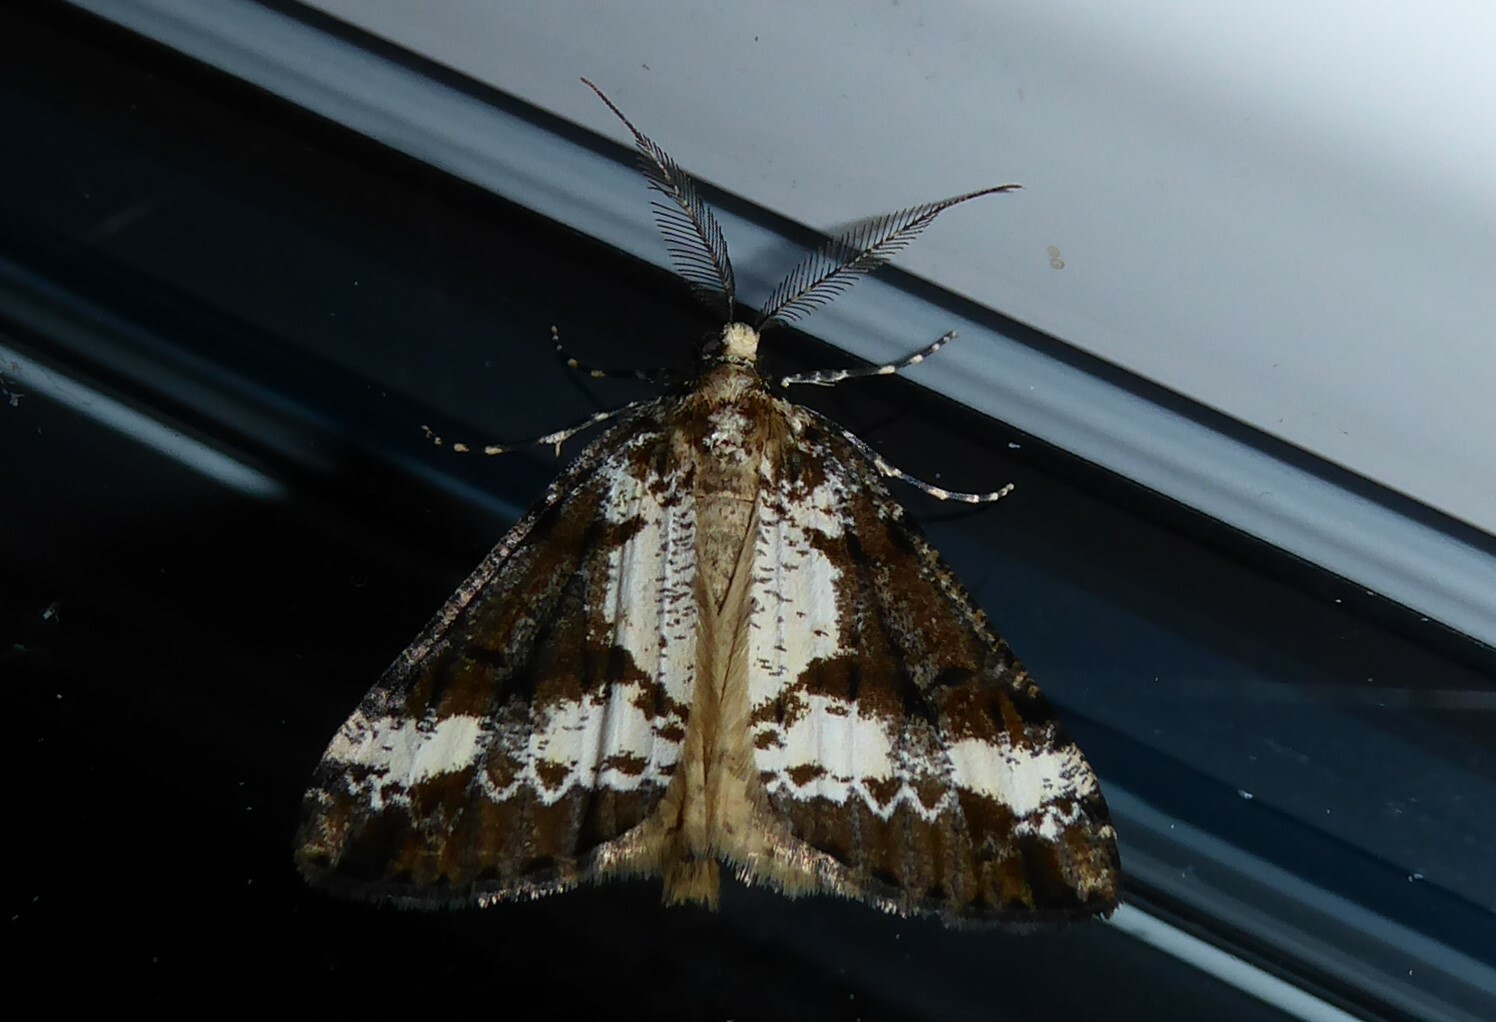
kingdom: Animalia
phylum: Arthropoda
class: Insecta
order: Lepidoptera
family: Geometridae
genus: Pseudocoremia
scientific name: Pseudocoremia leucelaea
